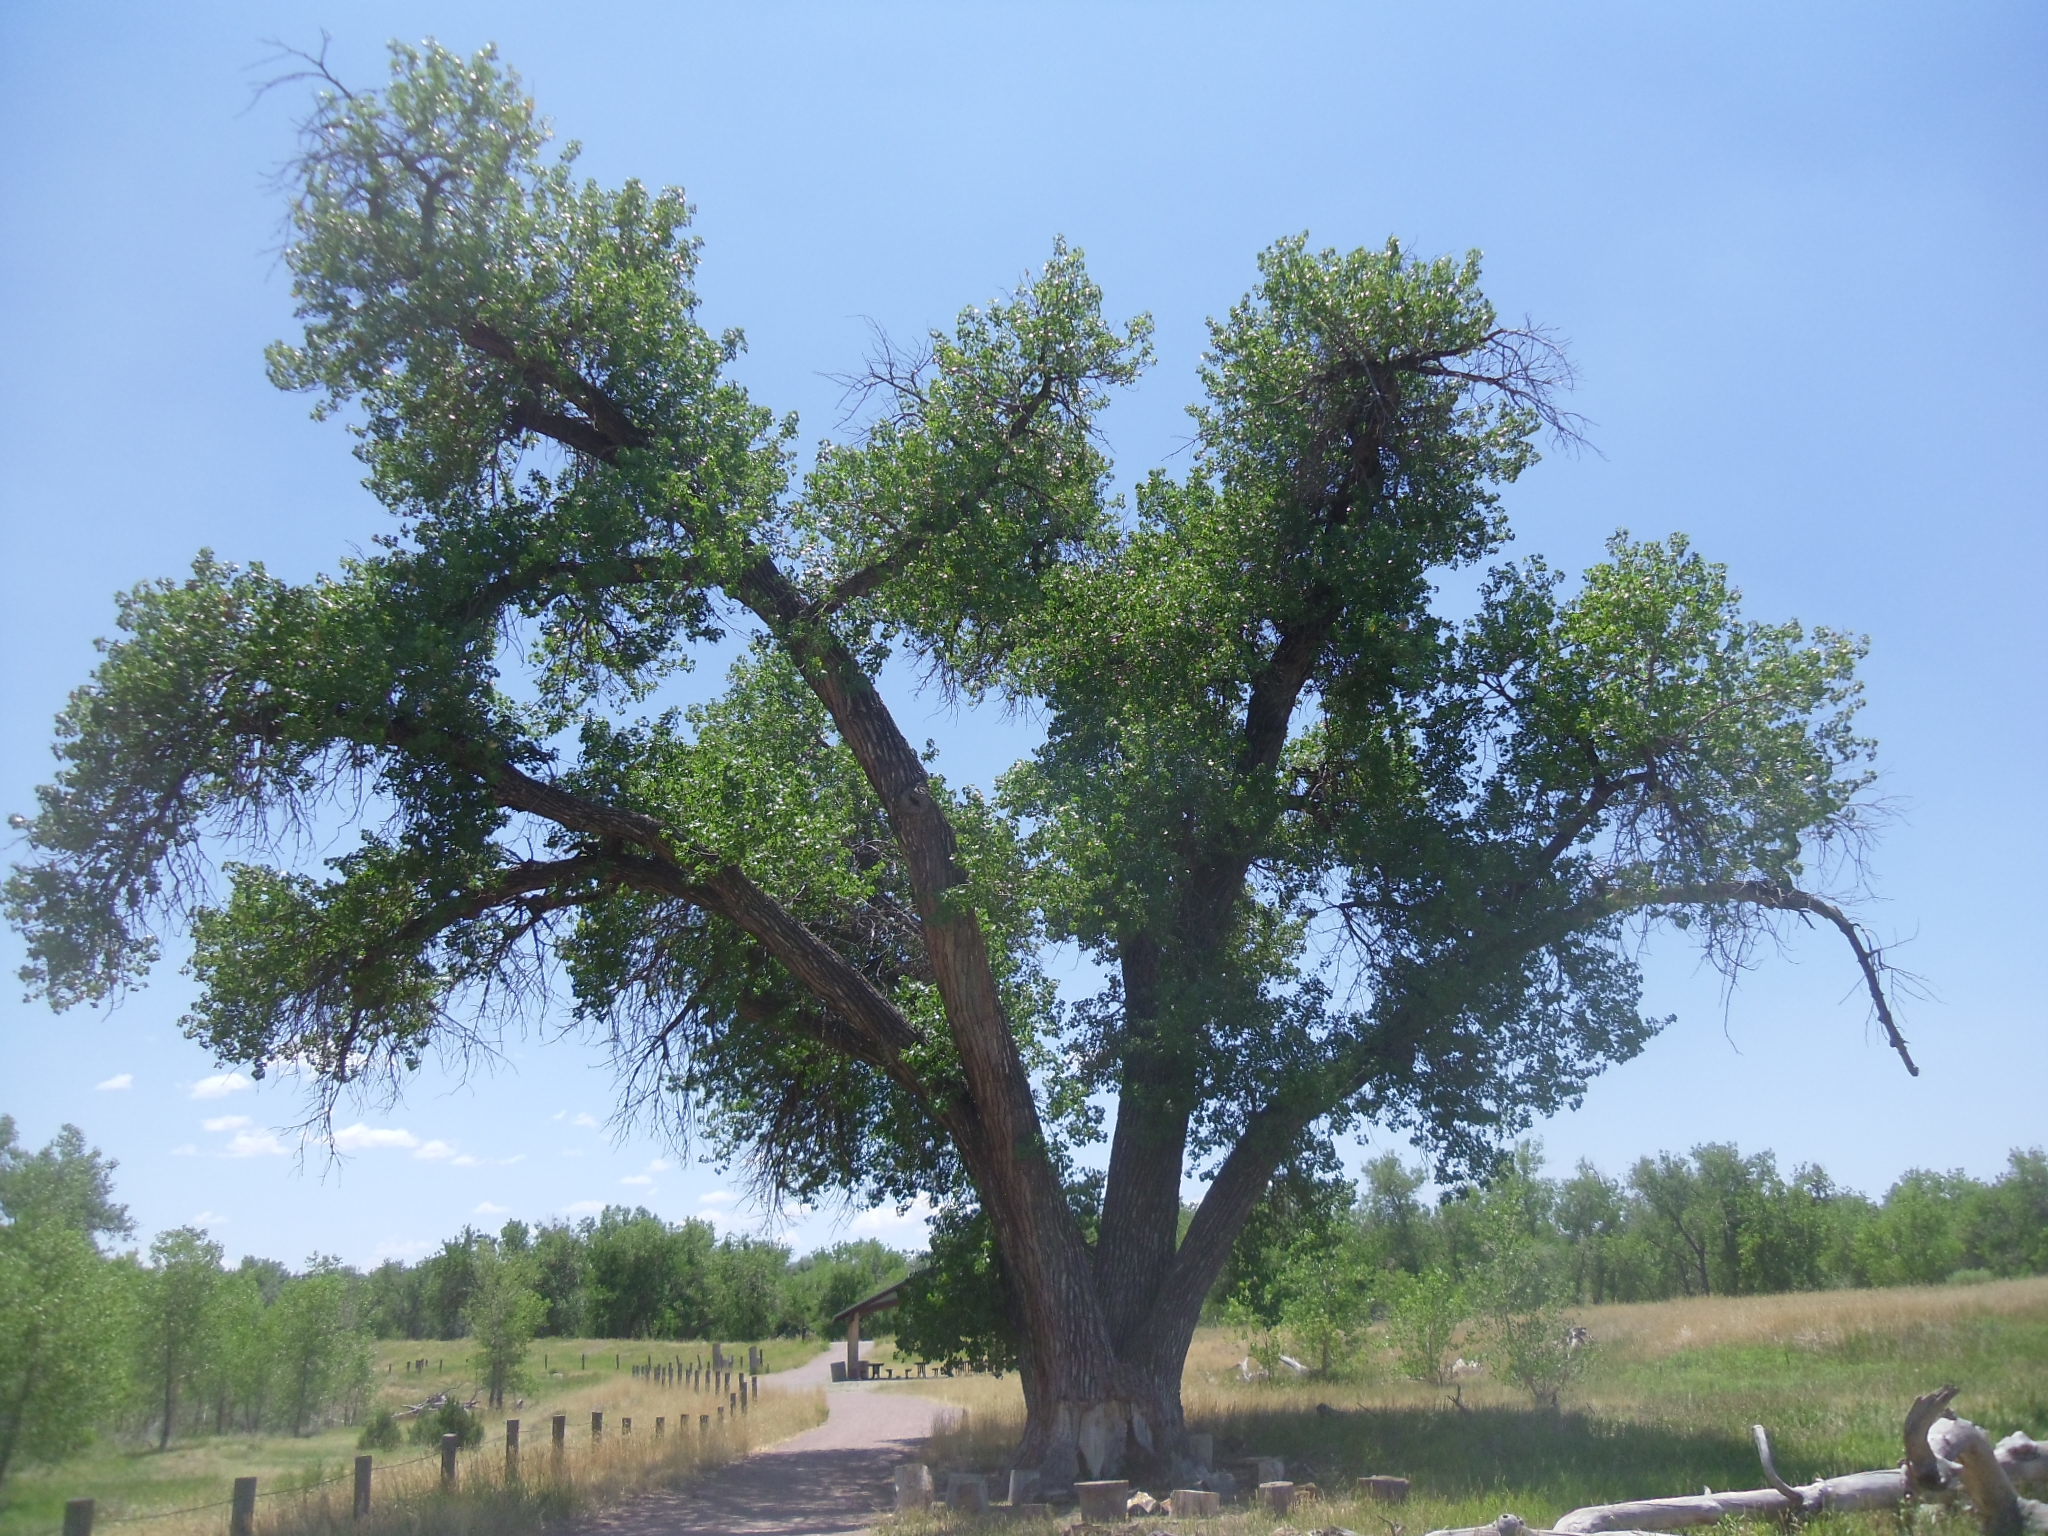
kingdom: Plantae
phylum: Tracheophyta
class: Magnoliopsida
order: Malpighiales
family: Salicaceae
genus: Populus
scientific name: Populus deltoides
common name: Eastern cottonwood
